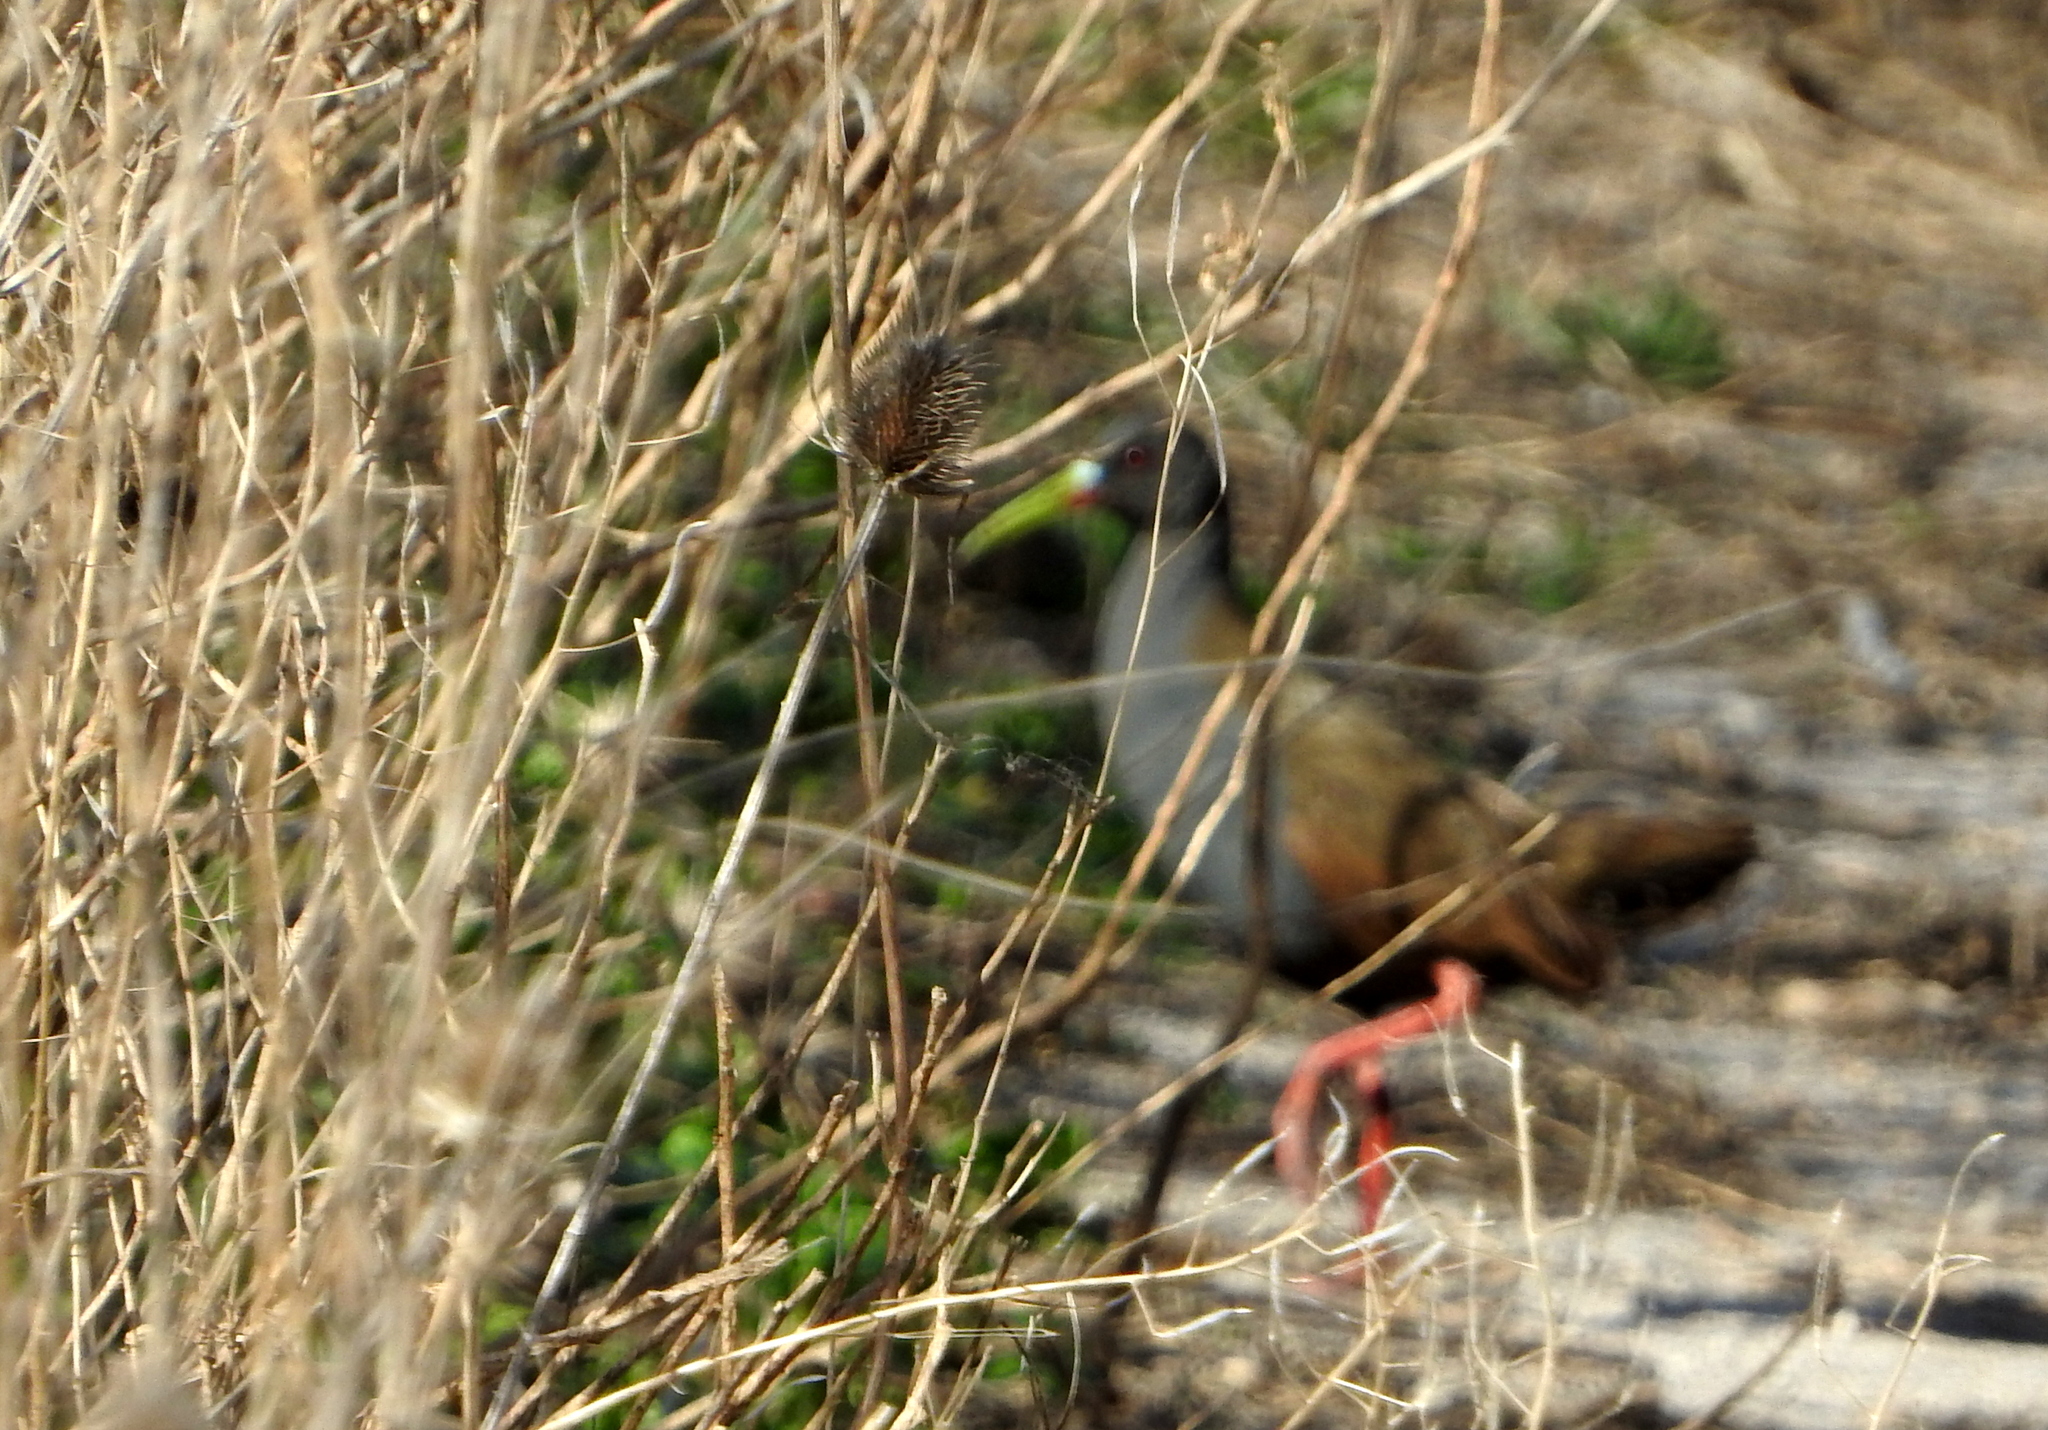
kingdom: Animalia
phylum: Chordata
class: Aves
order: Gruiformes
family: Rallidae
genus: Pardirallus
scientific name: Pardirallus sanguinolentus
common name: Plumbeous rail
